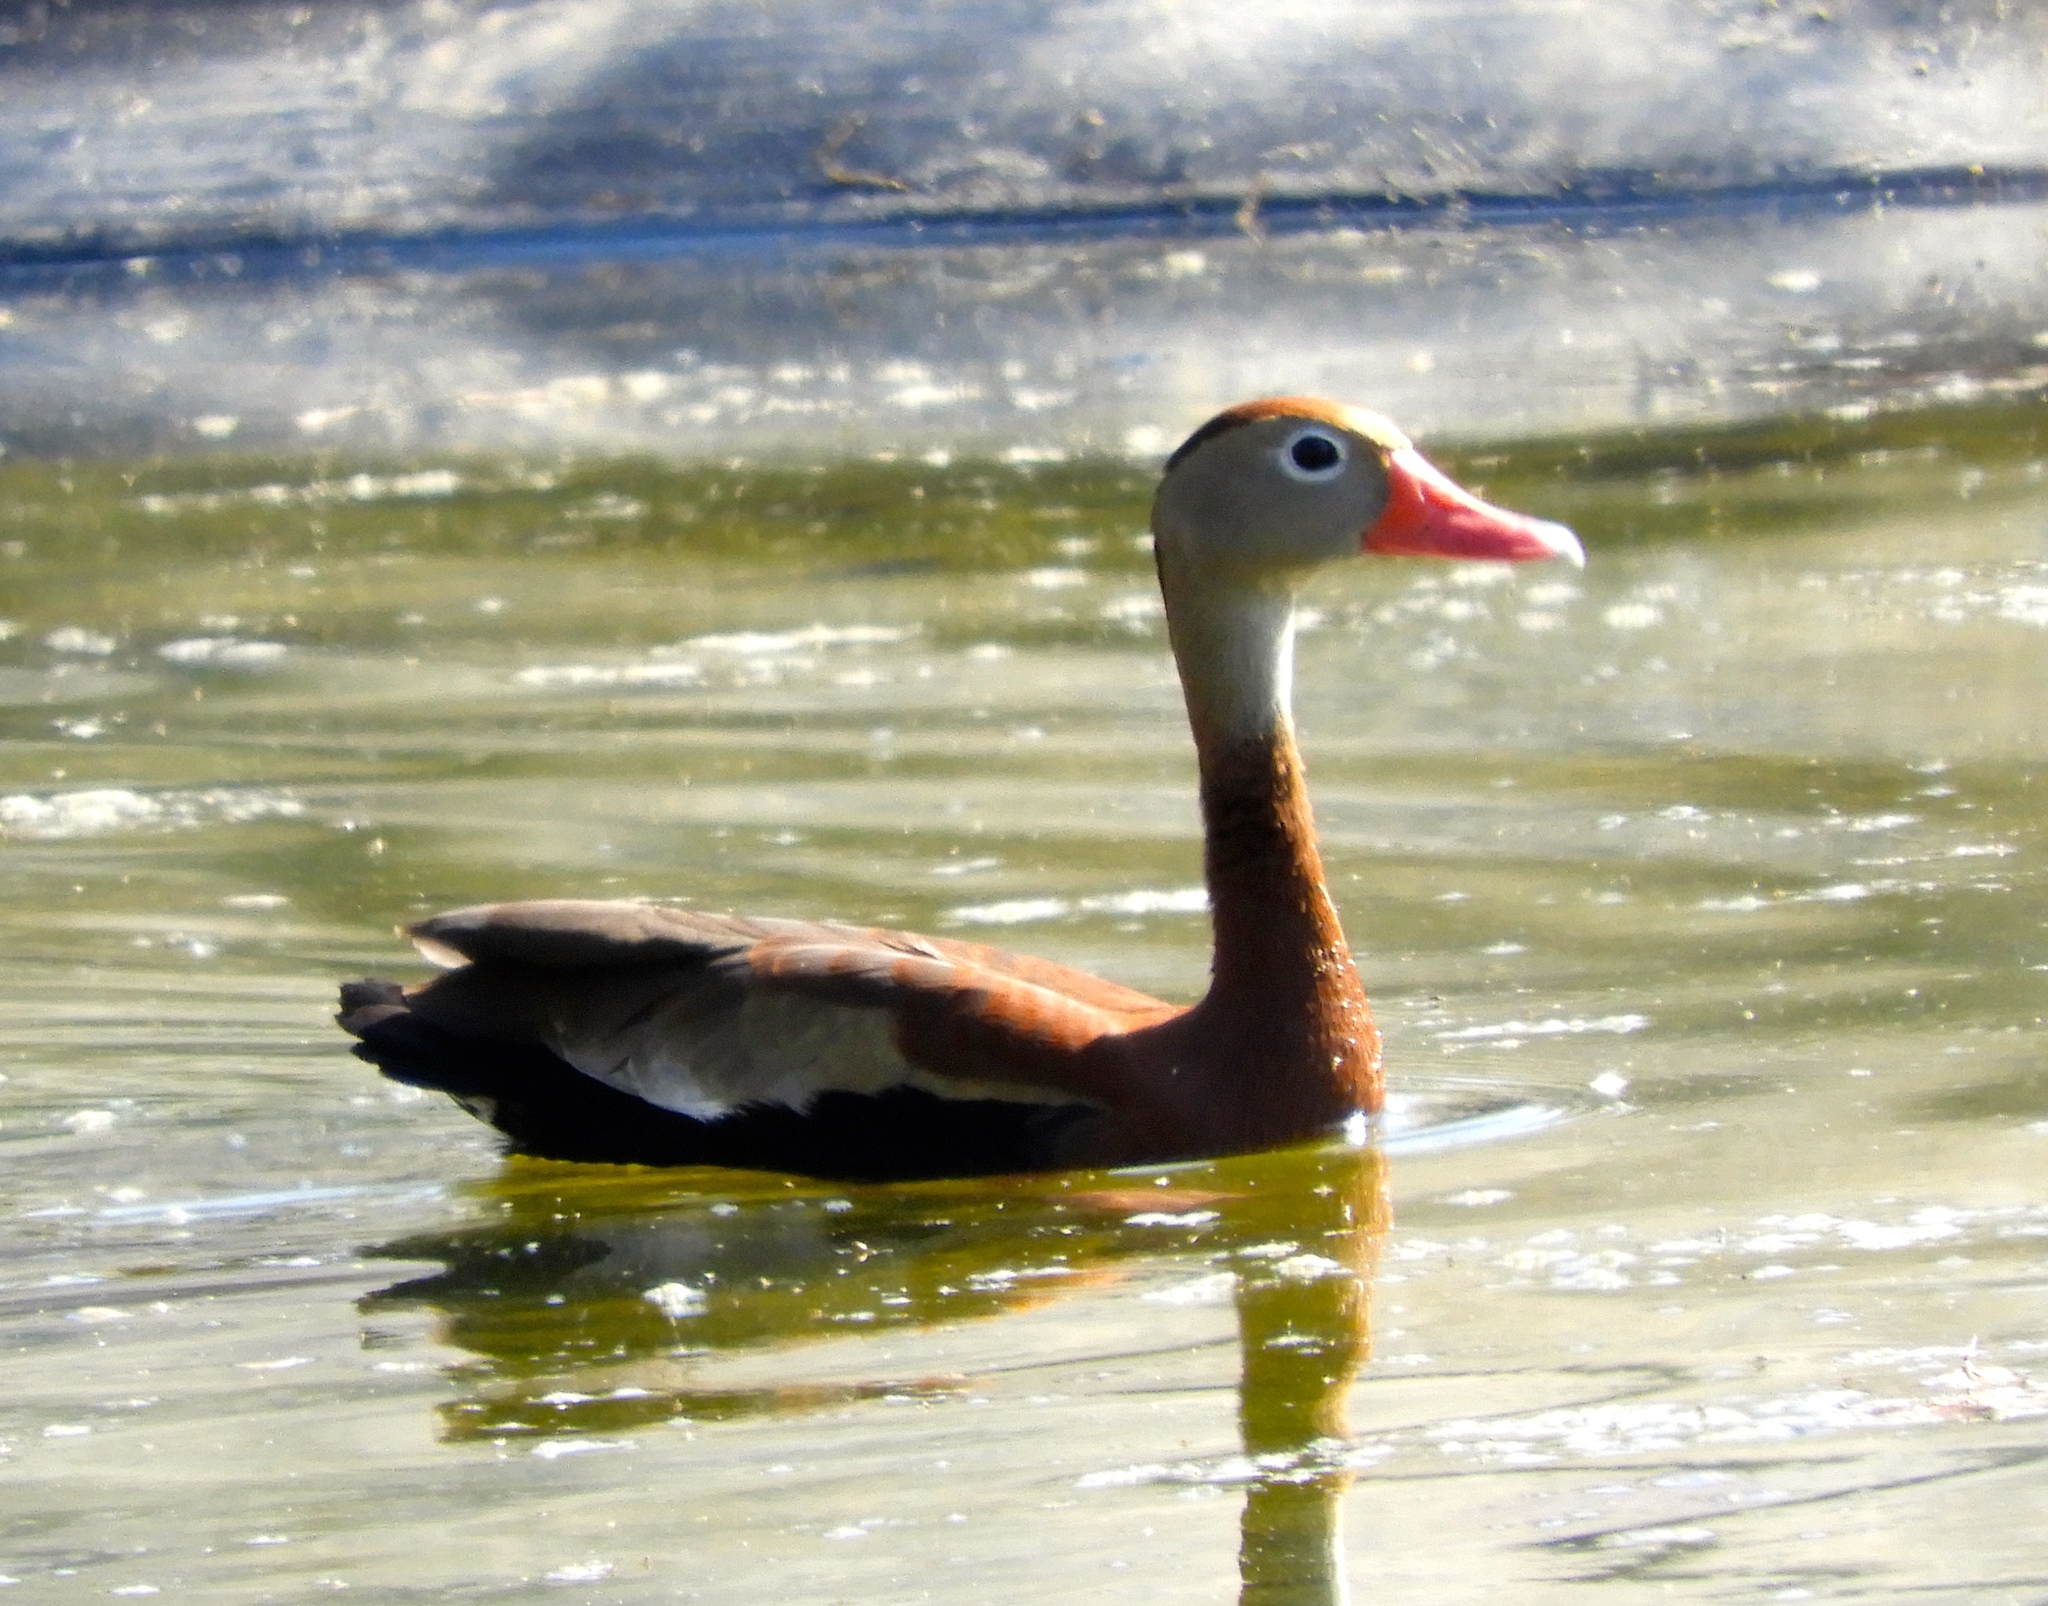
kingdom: Animalia
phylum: Chordata
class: Aves
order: Anseriformes
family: Anatidae
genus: Dendrocygna
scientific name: Dendrocygna autumnalis
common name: Black-bellied whistling duck
